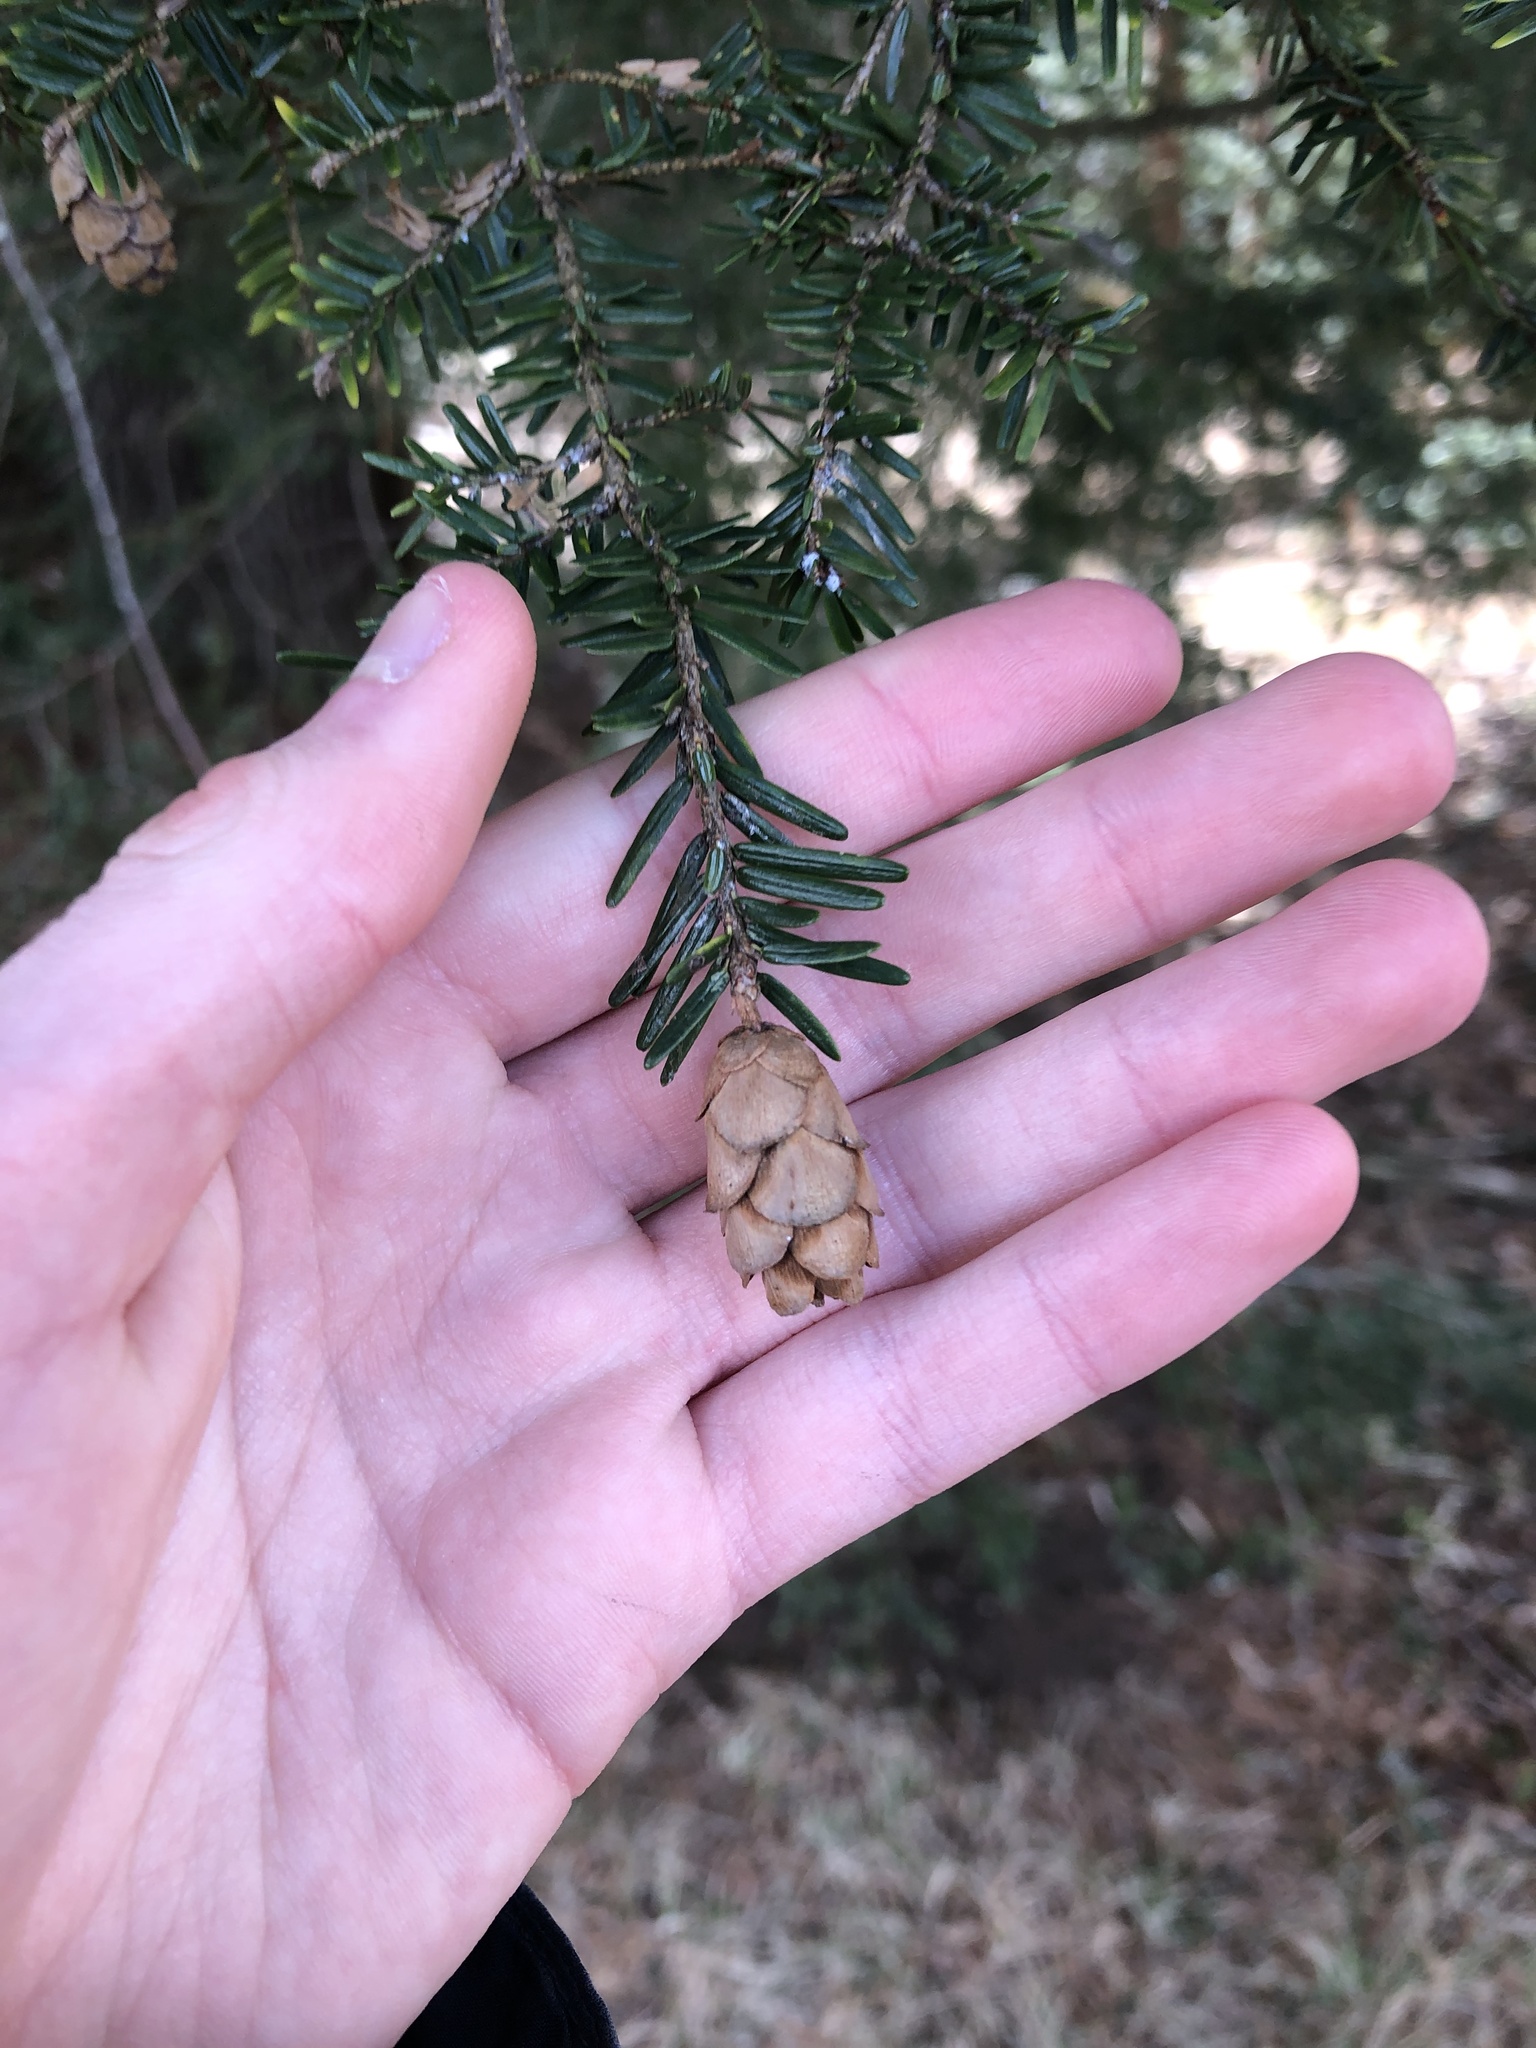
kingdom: Plantae
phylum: Tracheophyta
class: Pinopsida
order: Pinales
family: Pinaceae
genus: Tsuga
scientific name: Tsuga canadensis
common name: Eastern hemlock
